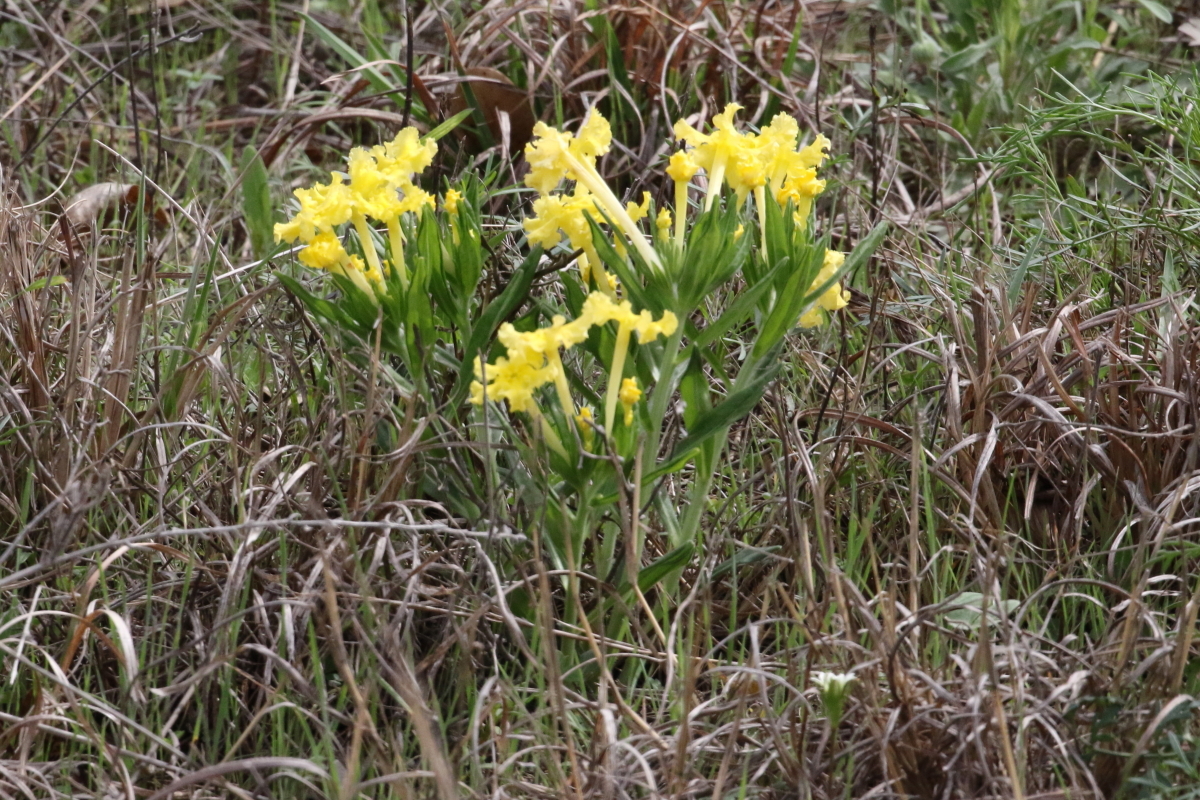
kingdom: Plantae
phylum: Tracheophyta
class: Magnoliopsida
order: Boraginales
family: Boraginaceae
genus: Lithospermum
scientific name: Lithospermum incisum
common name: Fringed gromwell
